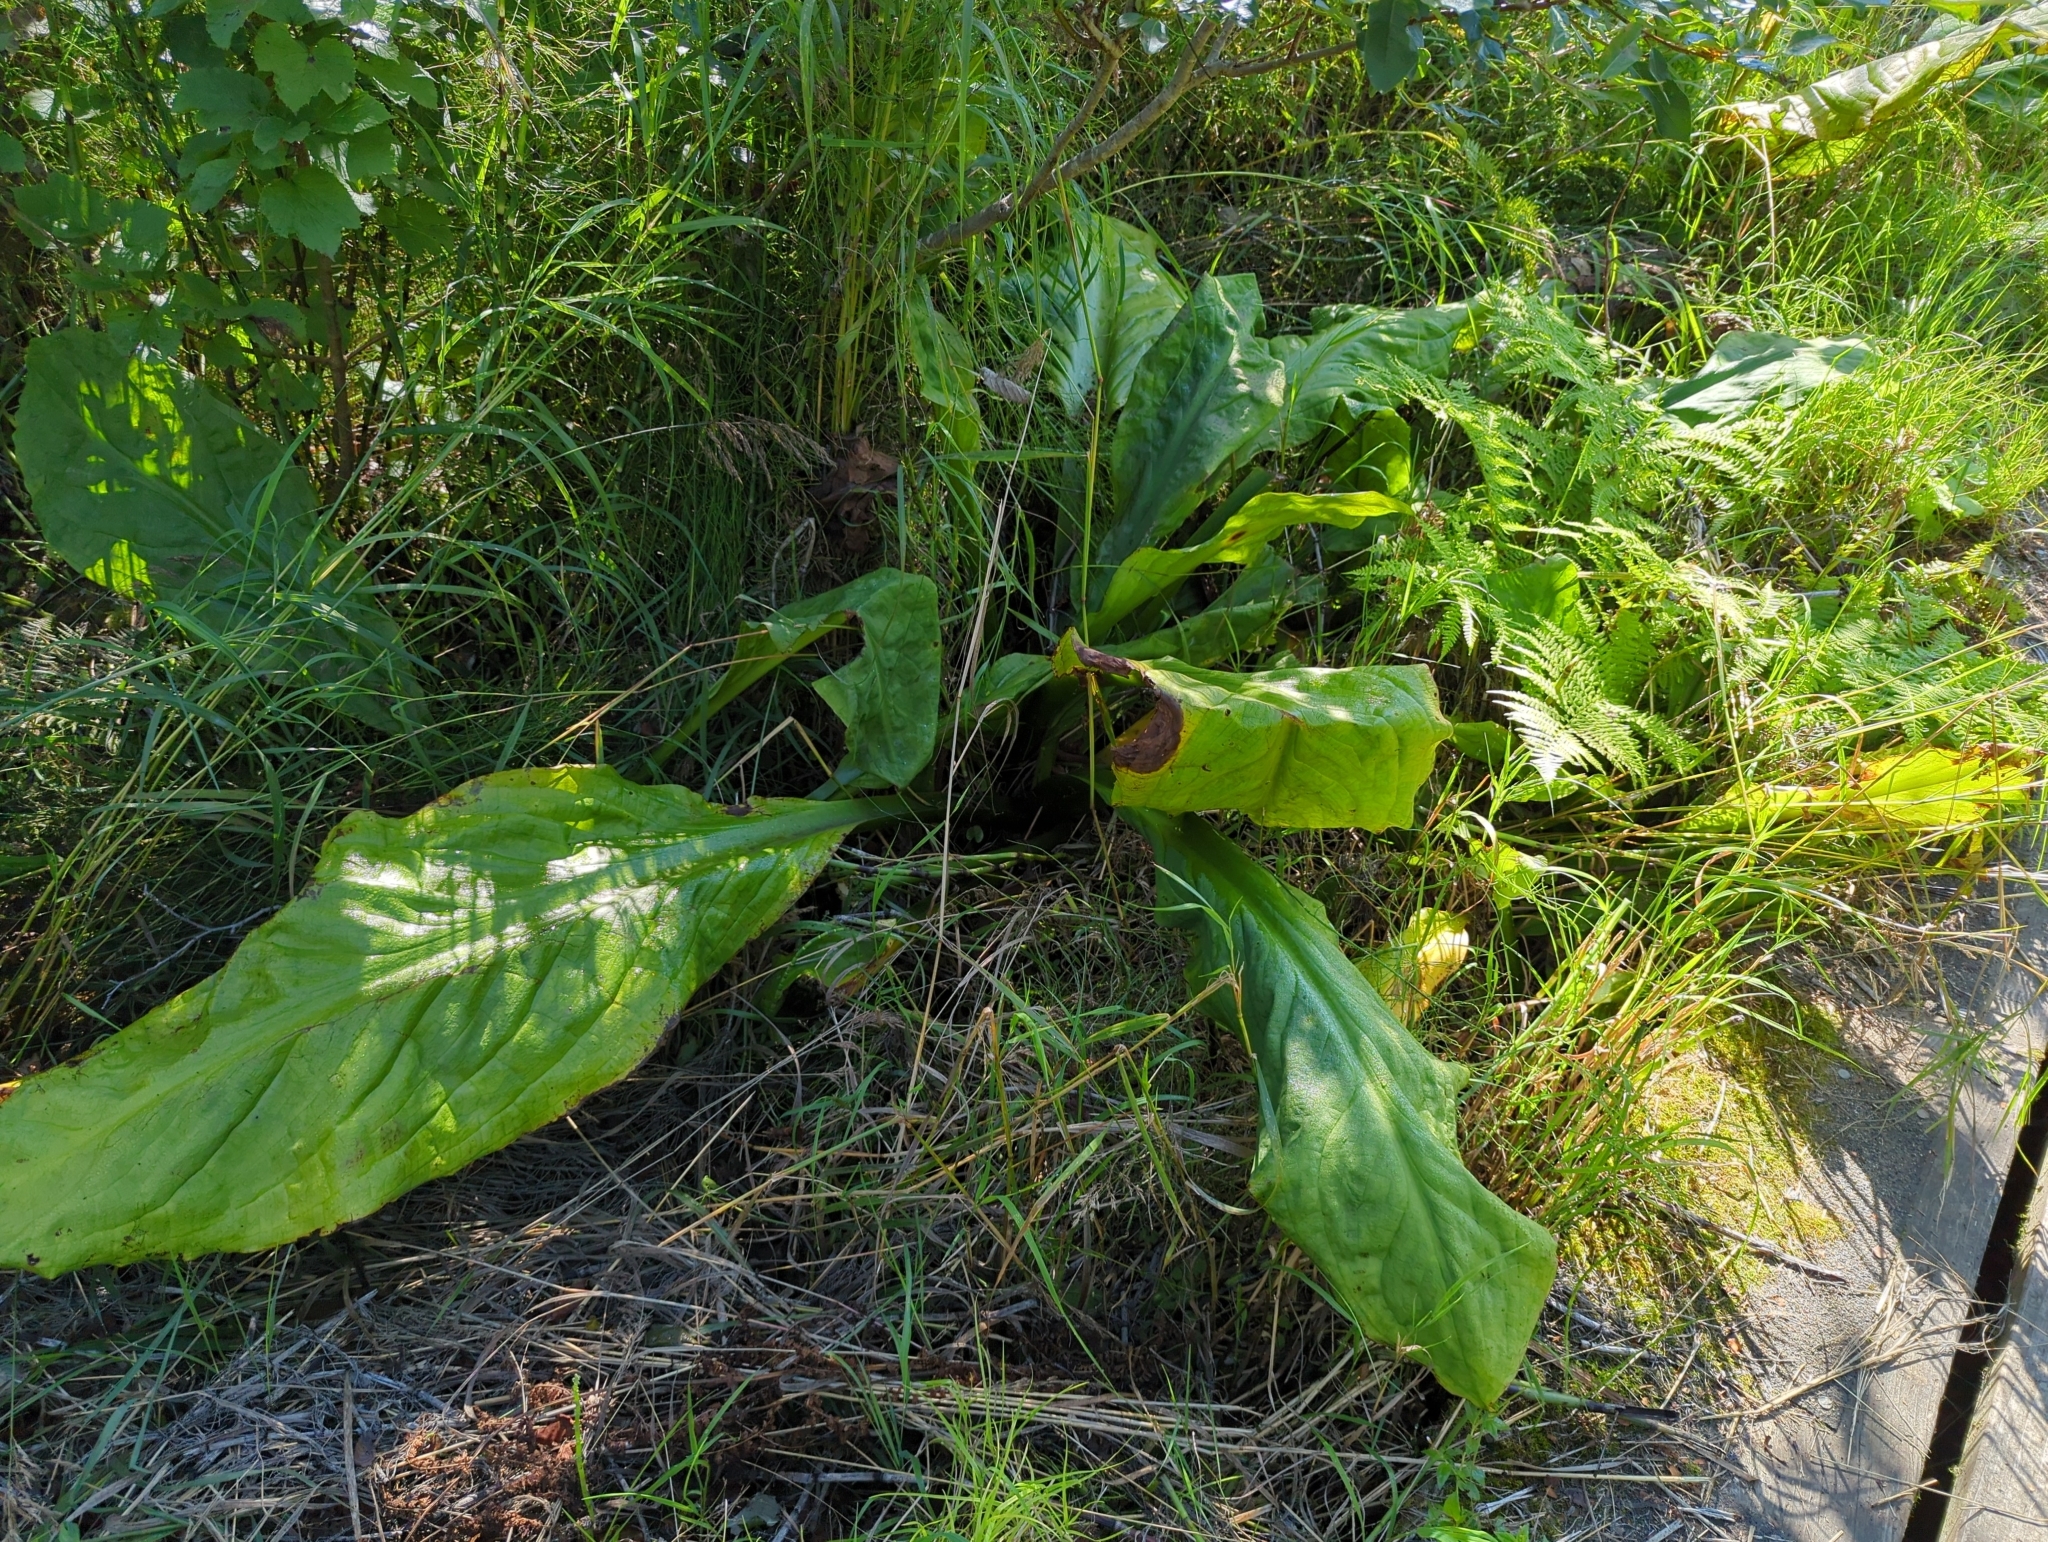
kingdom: Plantae
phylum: Tracheophyta
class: Liliopsida
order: Alismatales
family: Araceae
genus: Lysichiton
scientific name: Lysichiton americanus
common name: American skunk cabbage
